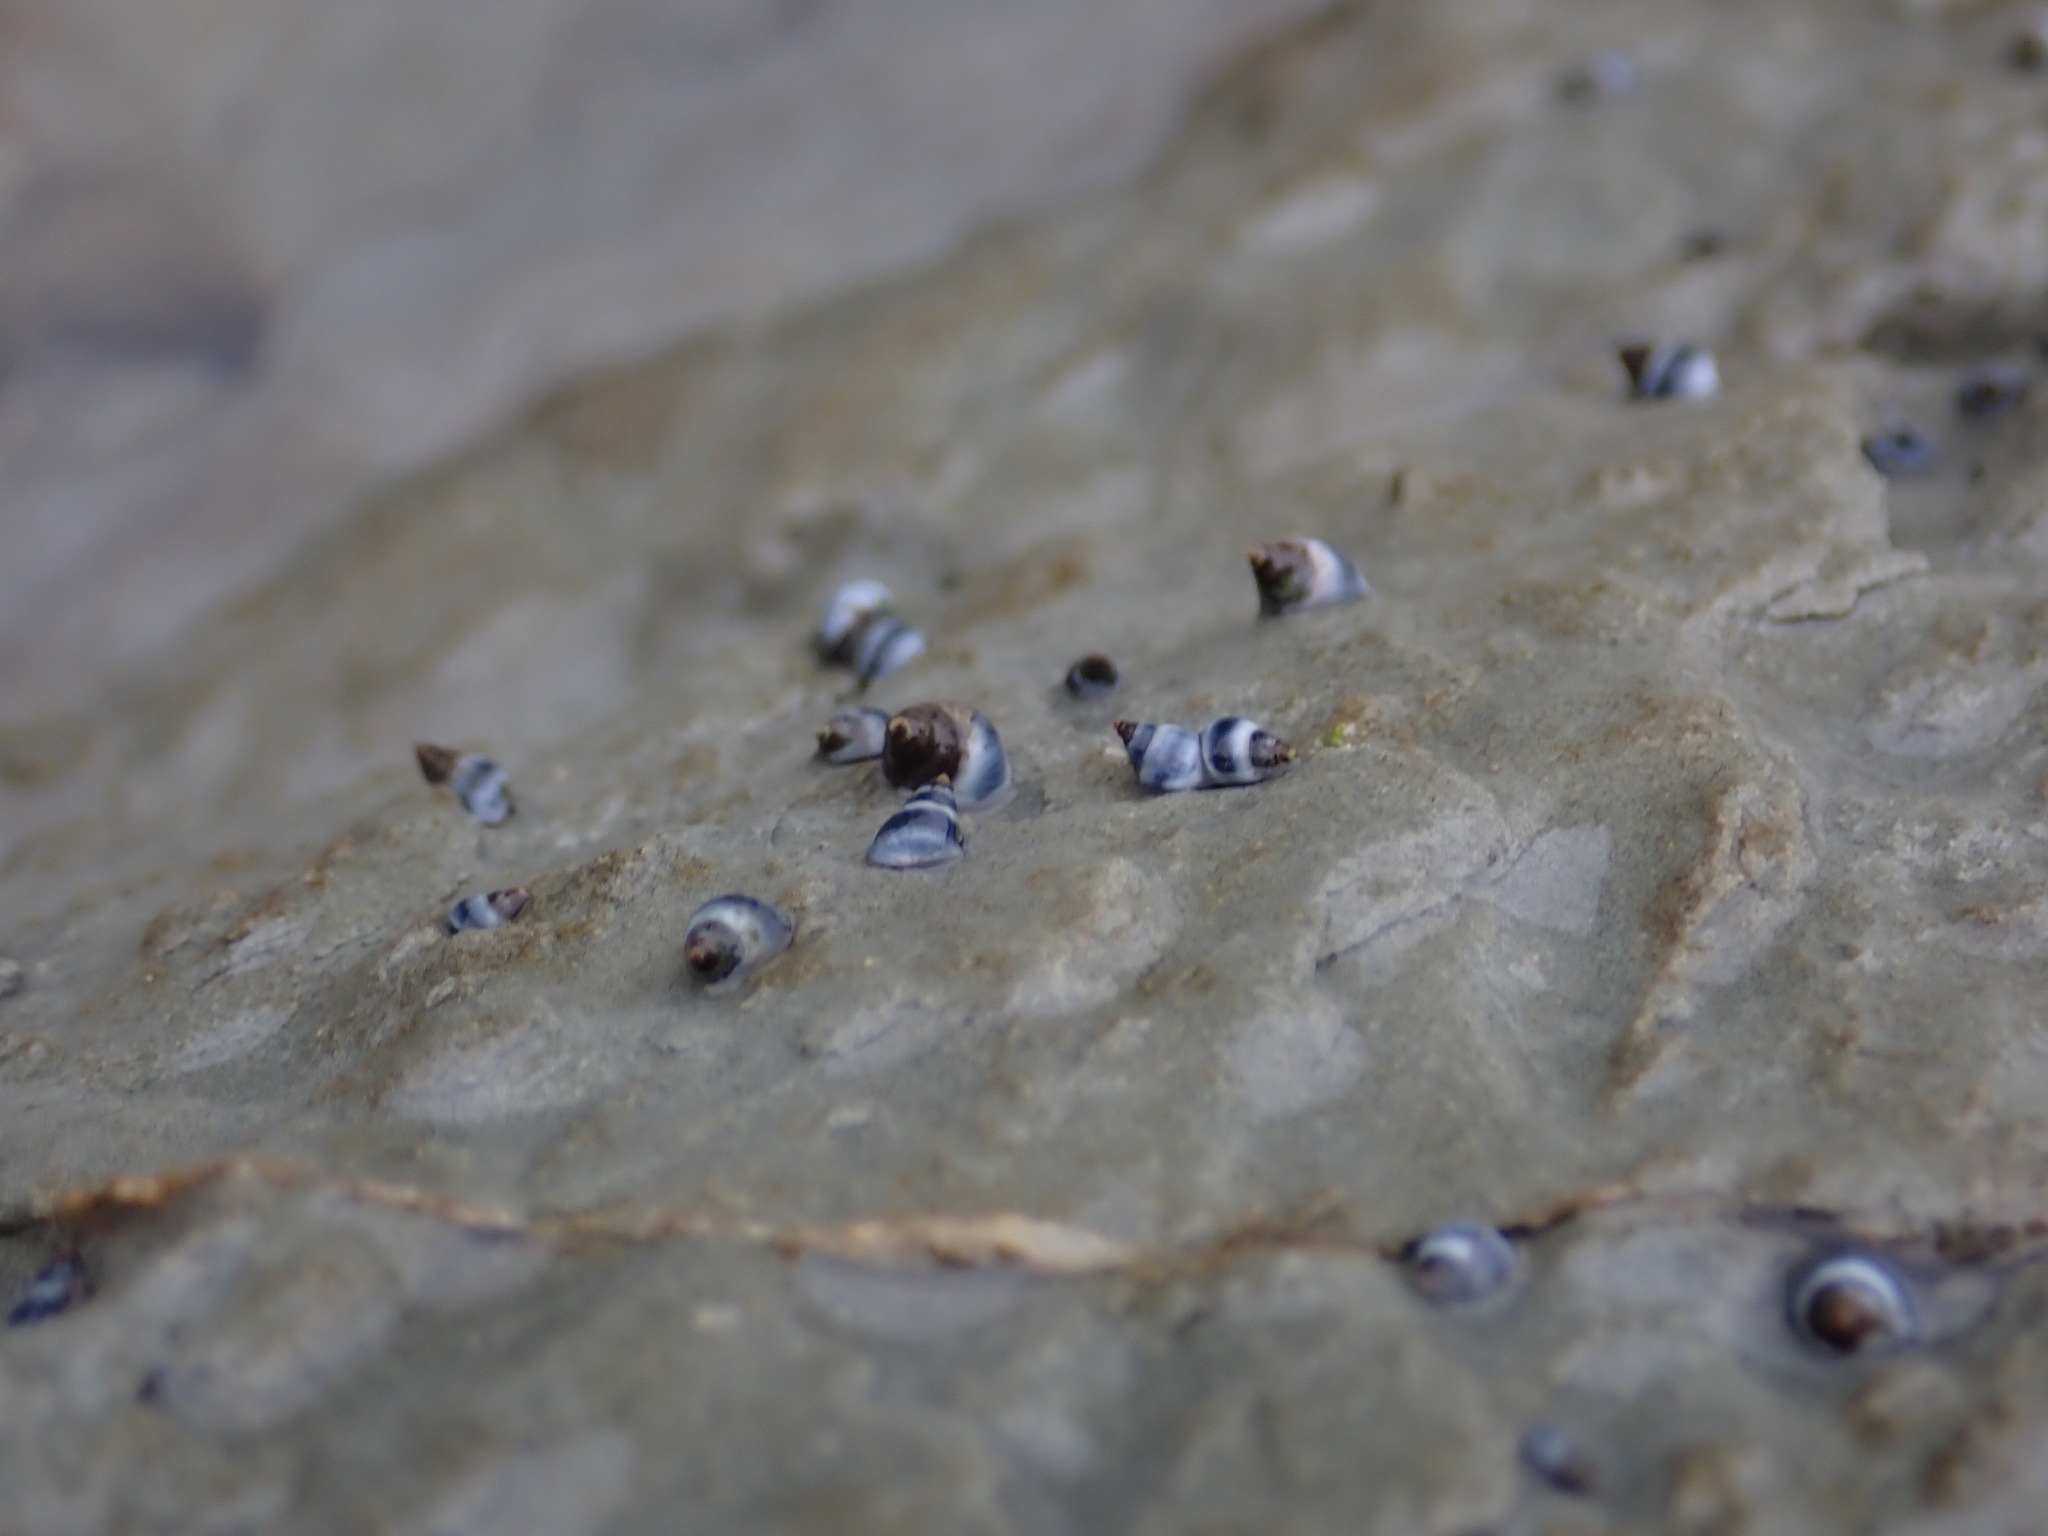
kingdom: Animalia
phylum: Mollusca
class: Gastropoda
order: Littorinimorpha
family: Littorinidae
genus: Austrolittorina
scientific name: Austrolittorina antipodum
